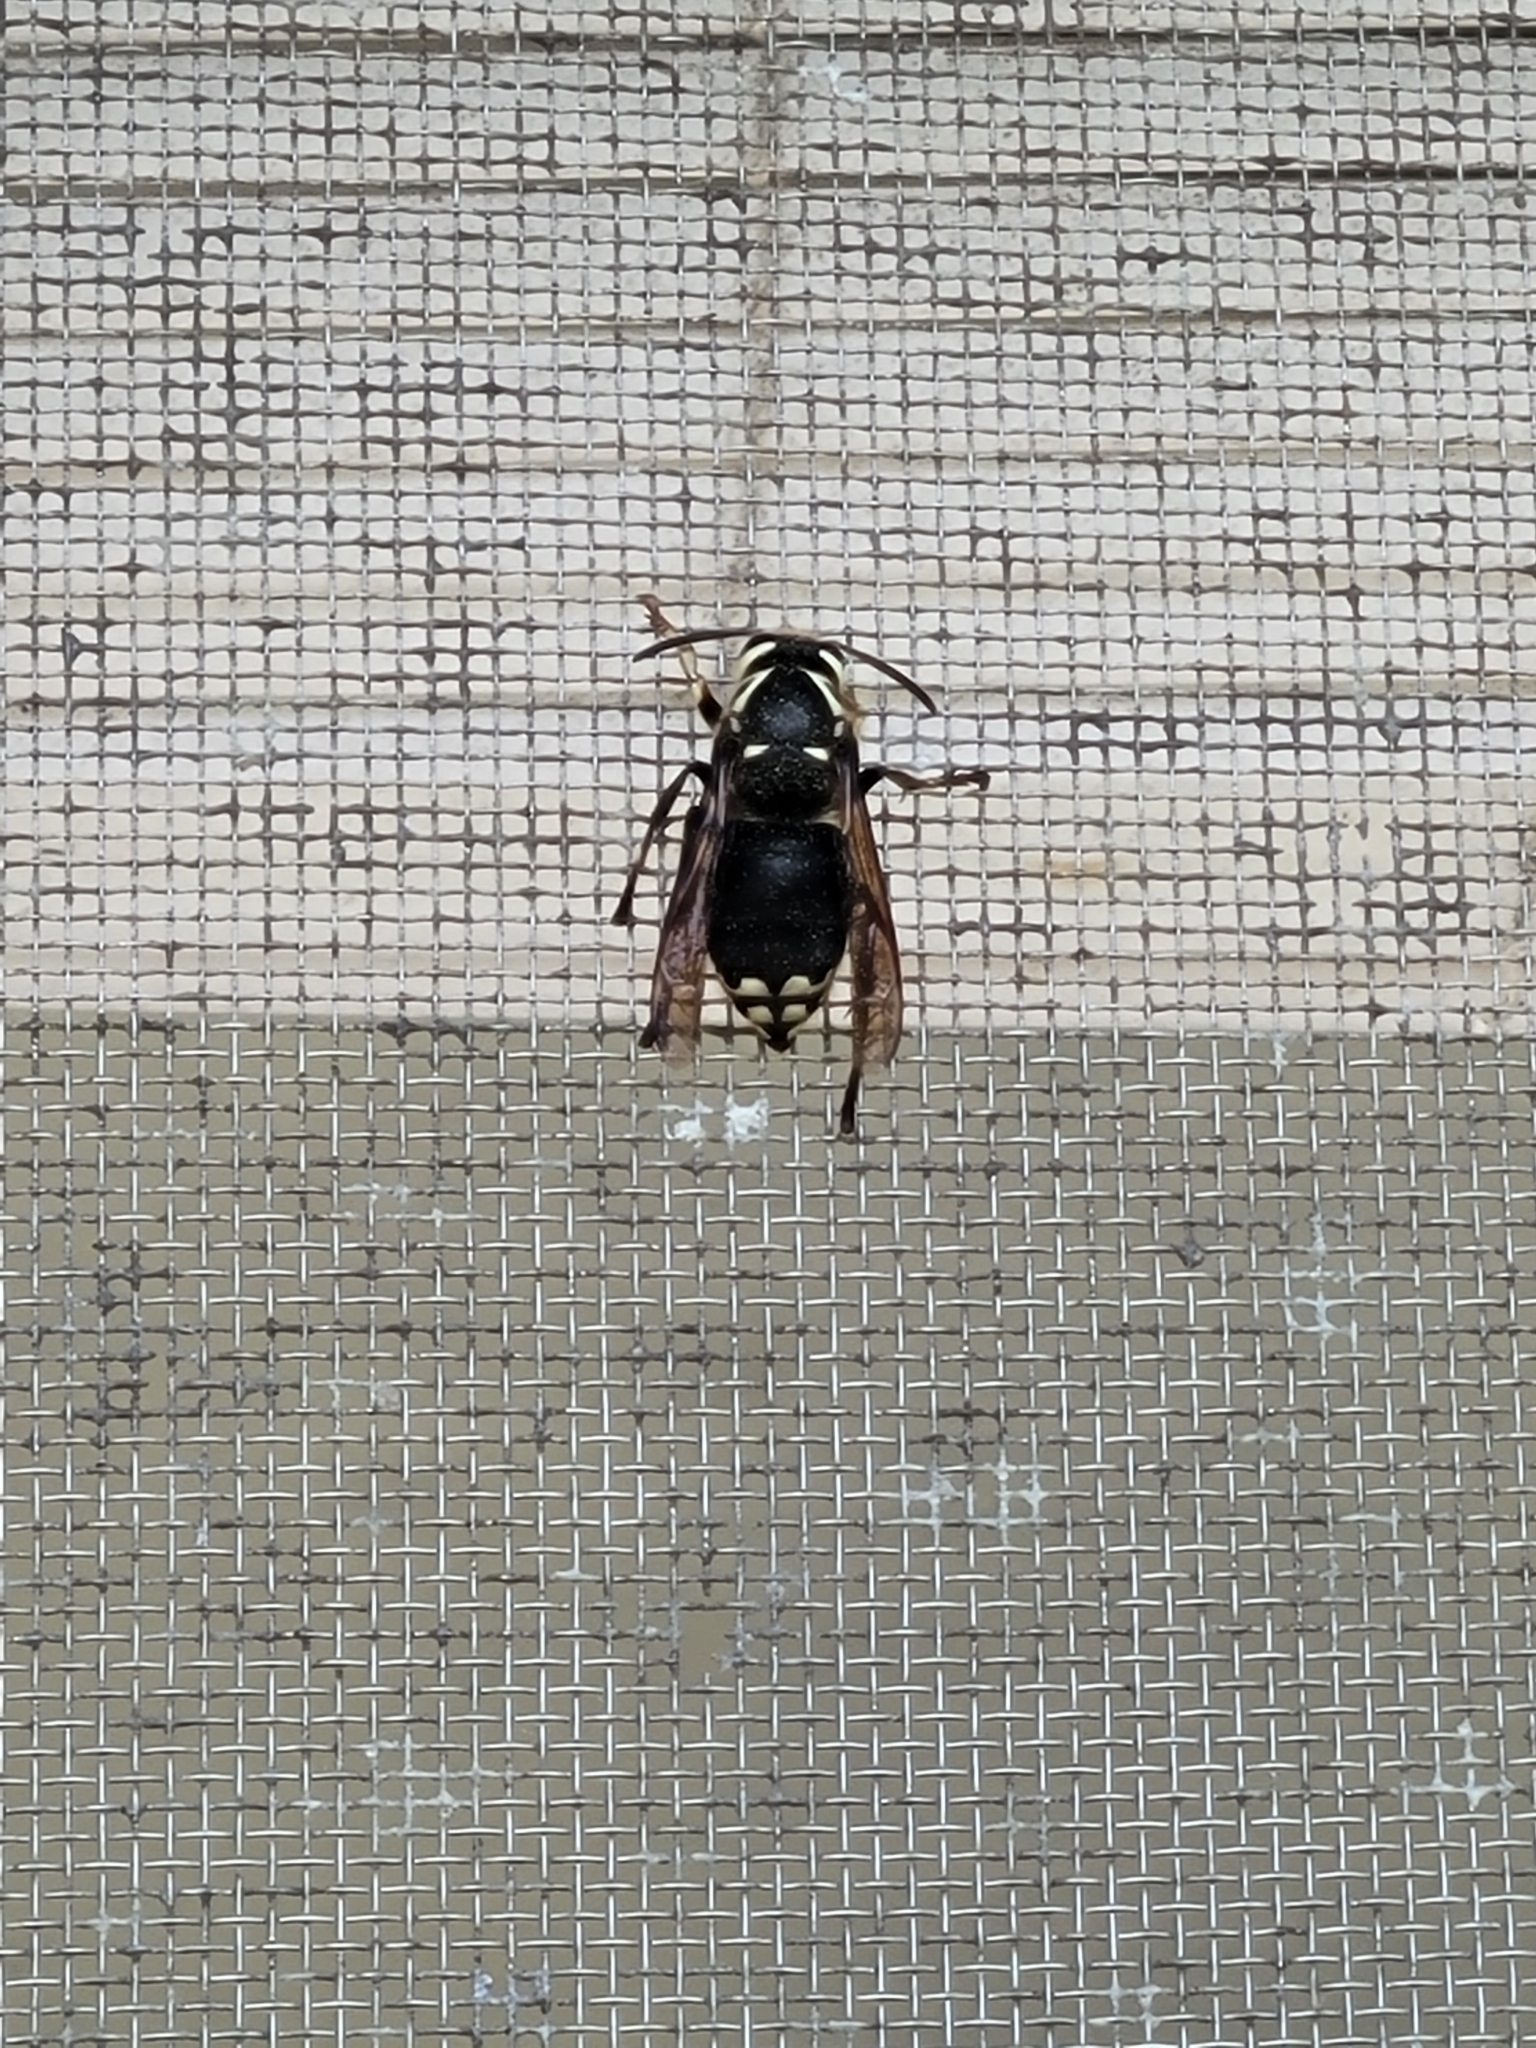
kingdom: Animalia
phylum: Arthropoda
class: Insecta
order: Hymenoptera
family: Vespidae
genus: Dolichovespula
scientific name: Dolichovespula maculata
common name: Bald-faced hornet
